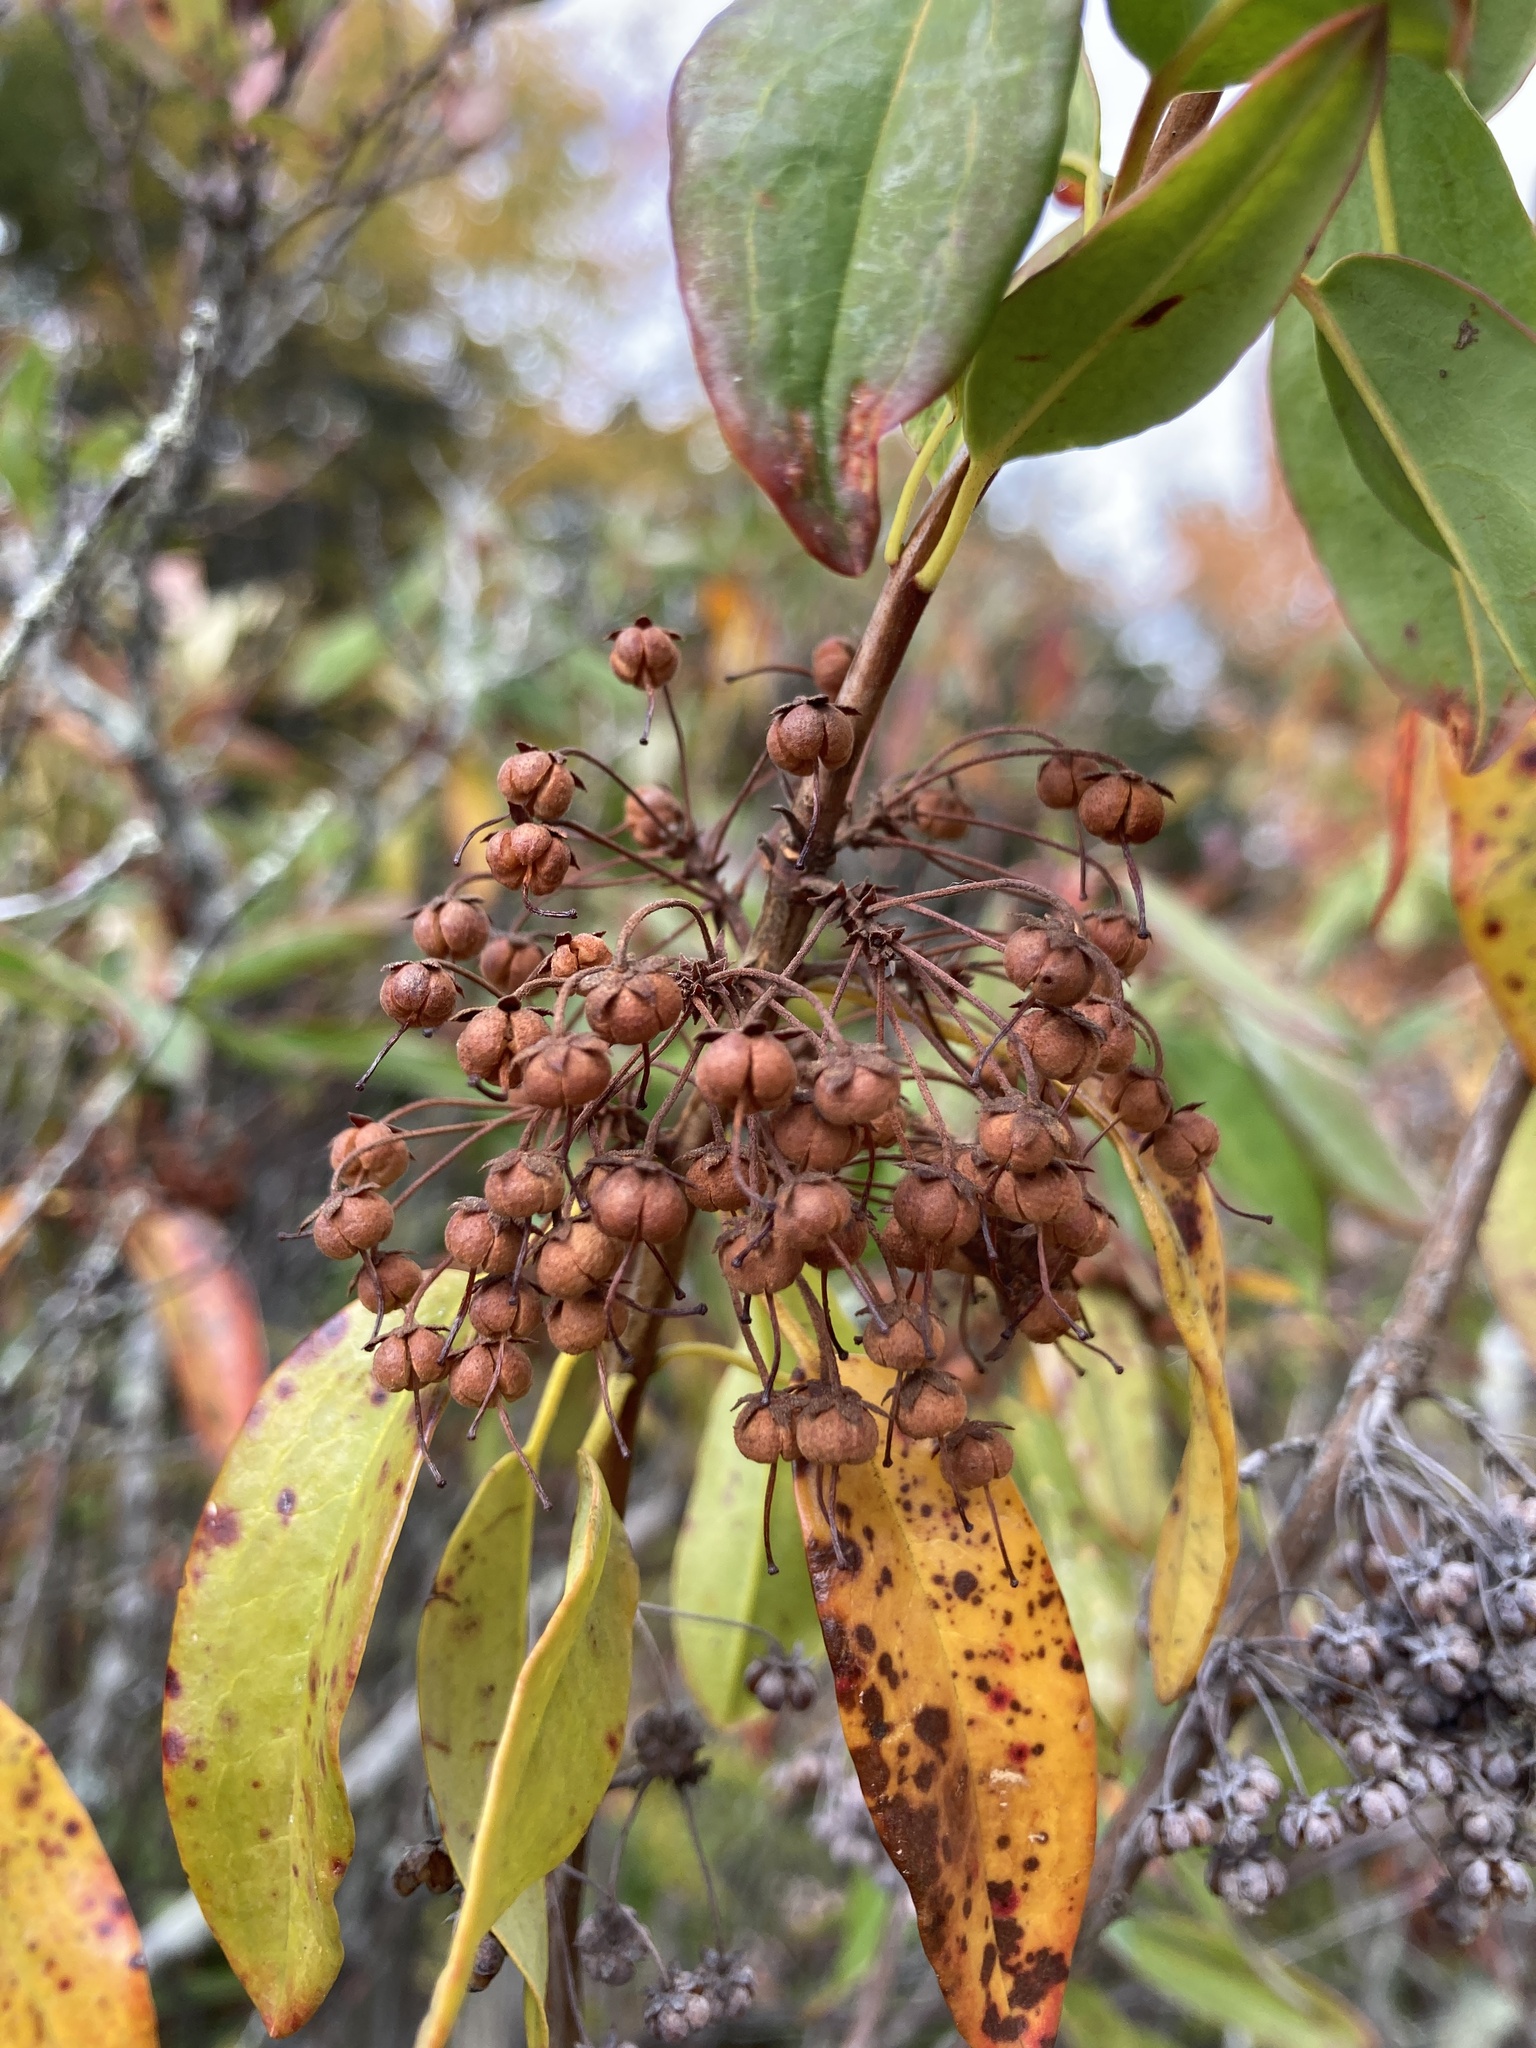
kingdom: Plantae
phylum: Tracheophyta
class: Magnoliopsida
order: Ericales
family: Ericaceae
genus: Kalmia
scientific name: Kalmia angustifolia
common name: Sheep-laurel
